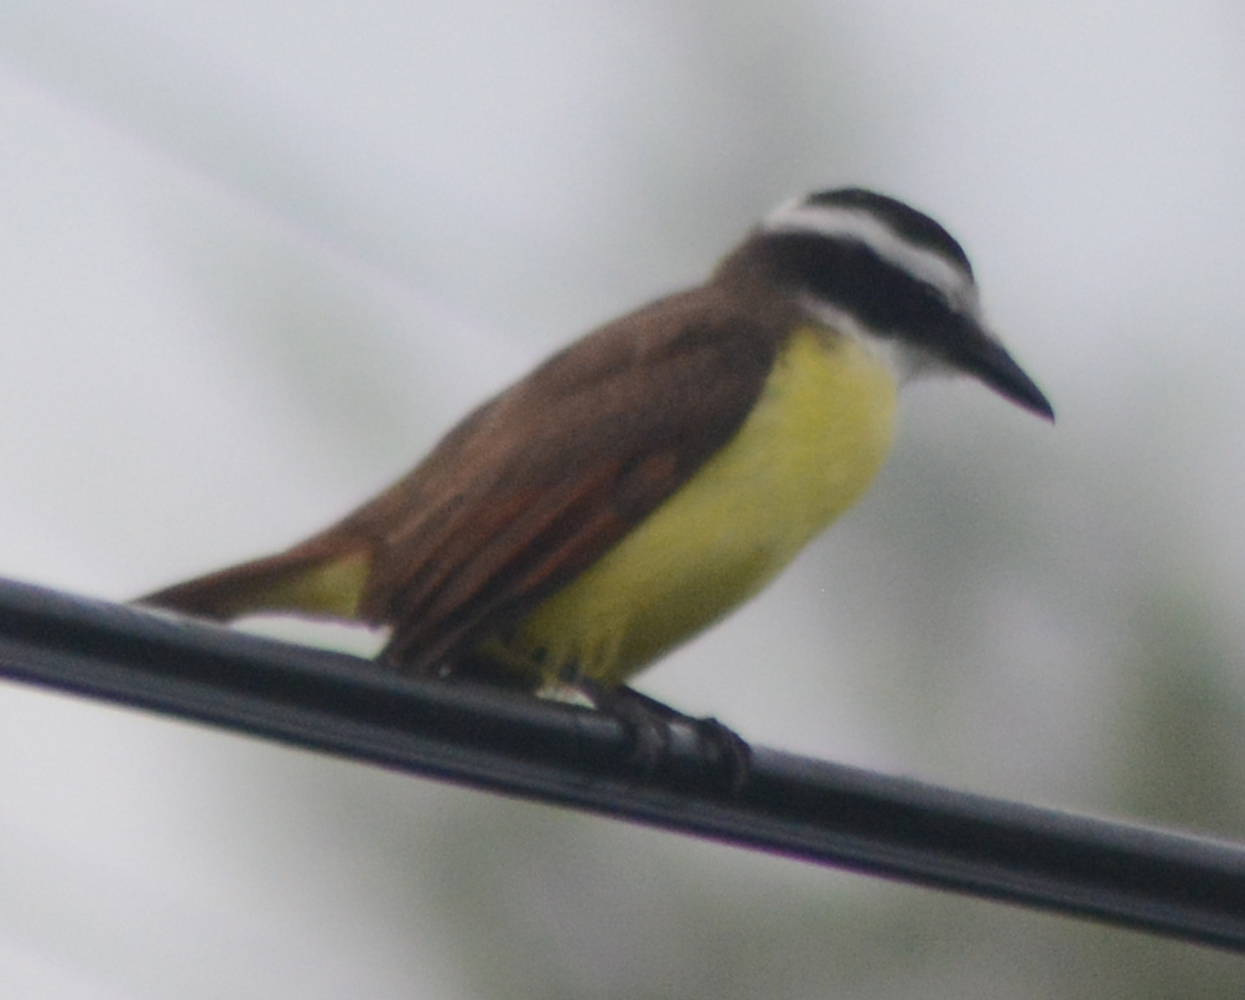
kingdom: Animalia
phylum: Chordata
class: Aves
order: Passeriformes
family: Tyrannidae
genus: Pitangus
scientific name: Pitangus sulphuratus
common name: Great kiskadee
